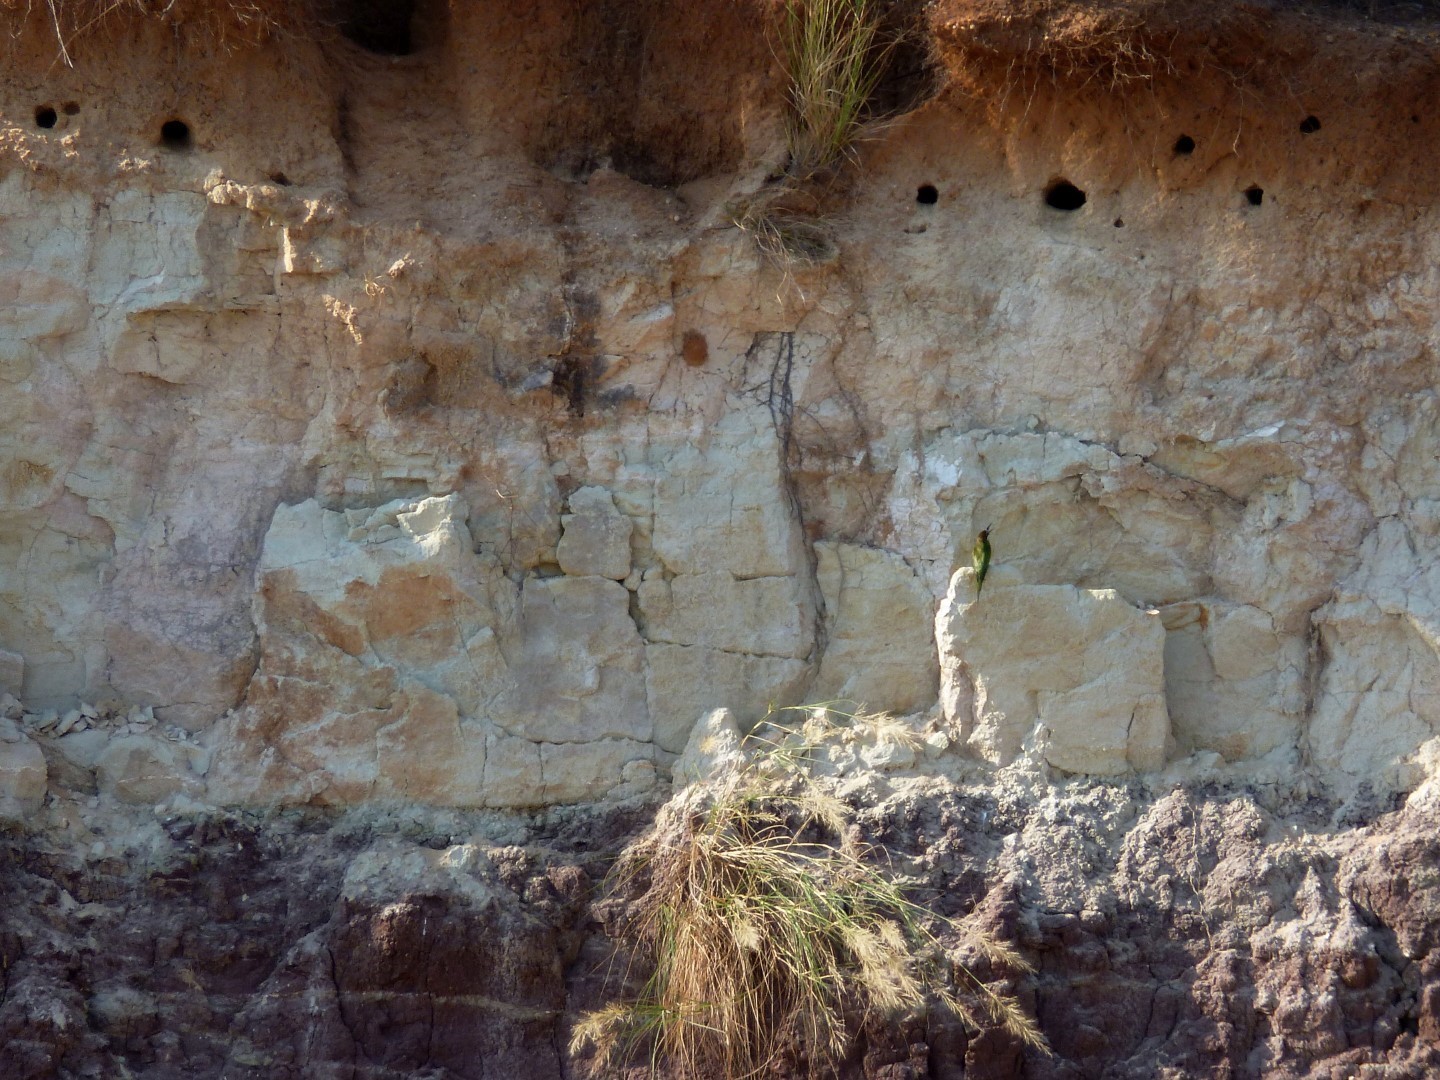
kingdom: Animalia
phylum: Chordata
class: Aves
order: Coraciiformes
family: Meropidae
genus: Merops
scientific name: Merops superciliosus
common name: Olive bee-eater
